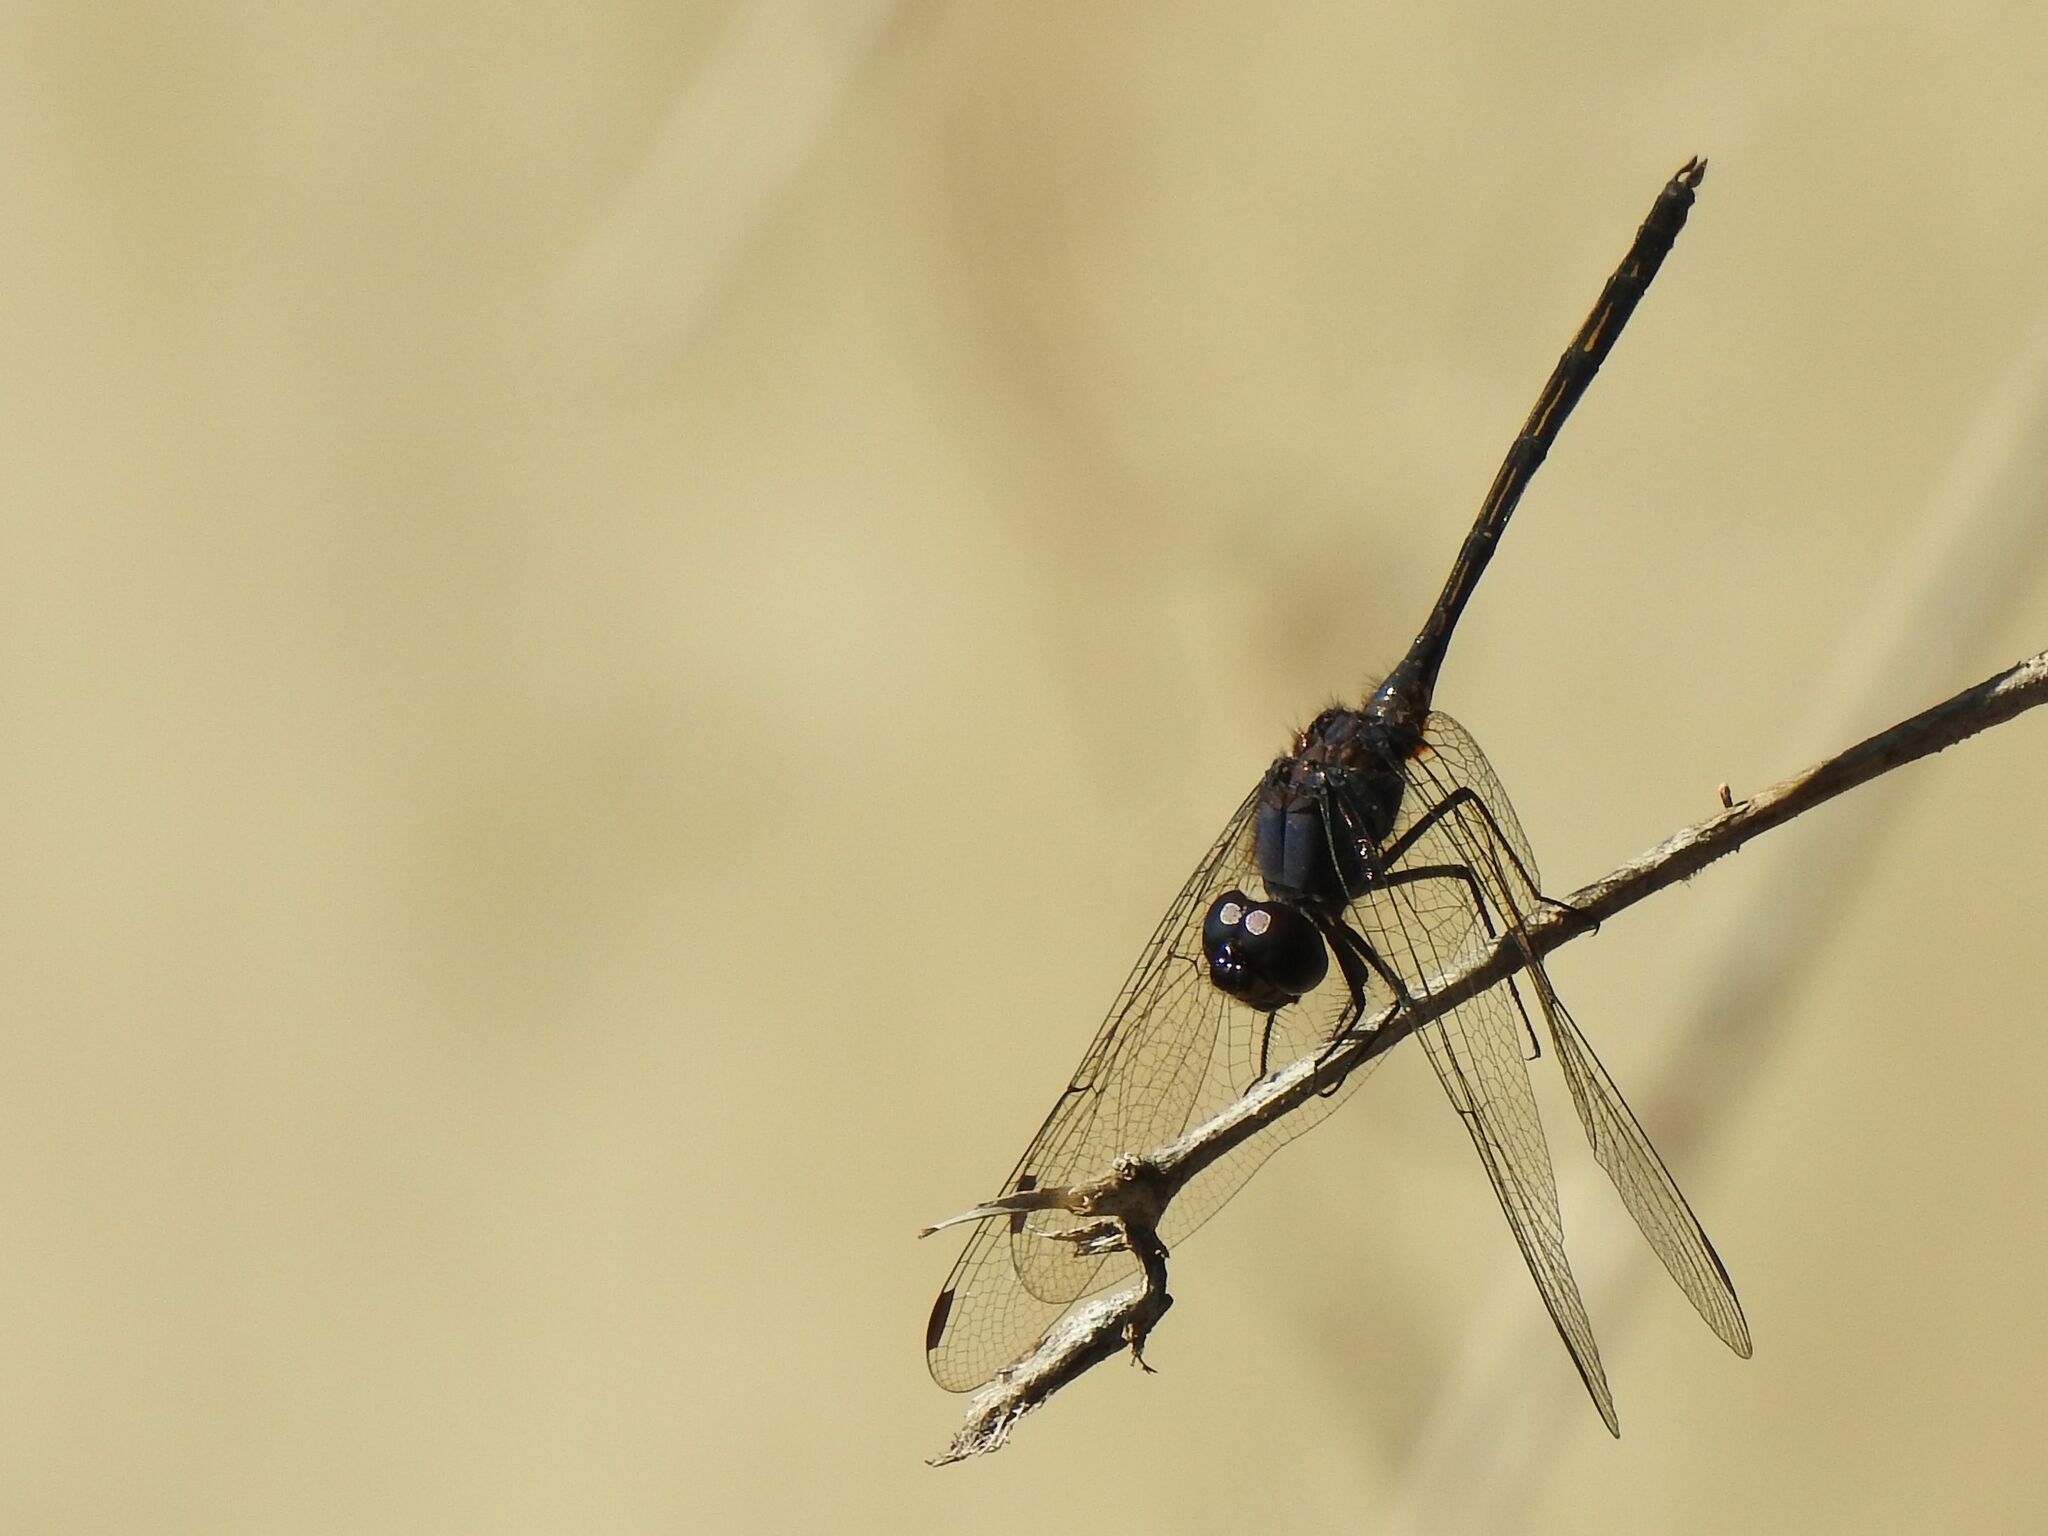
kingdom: Animalia
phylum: Arthropoda
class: Insecta
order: Odonata
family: Libellulidae
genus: Trithemis
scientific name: Trithemis aconita
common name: Halfshade dropwing
